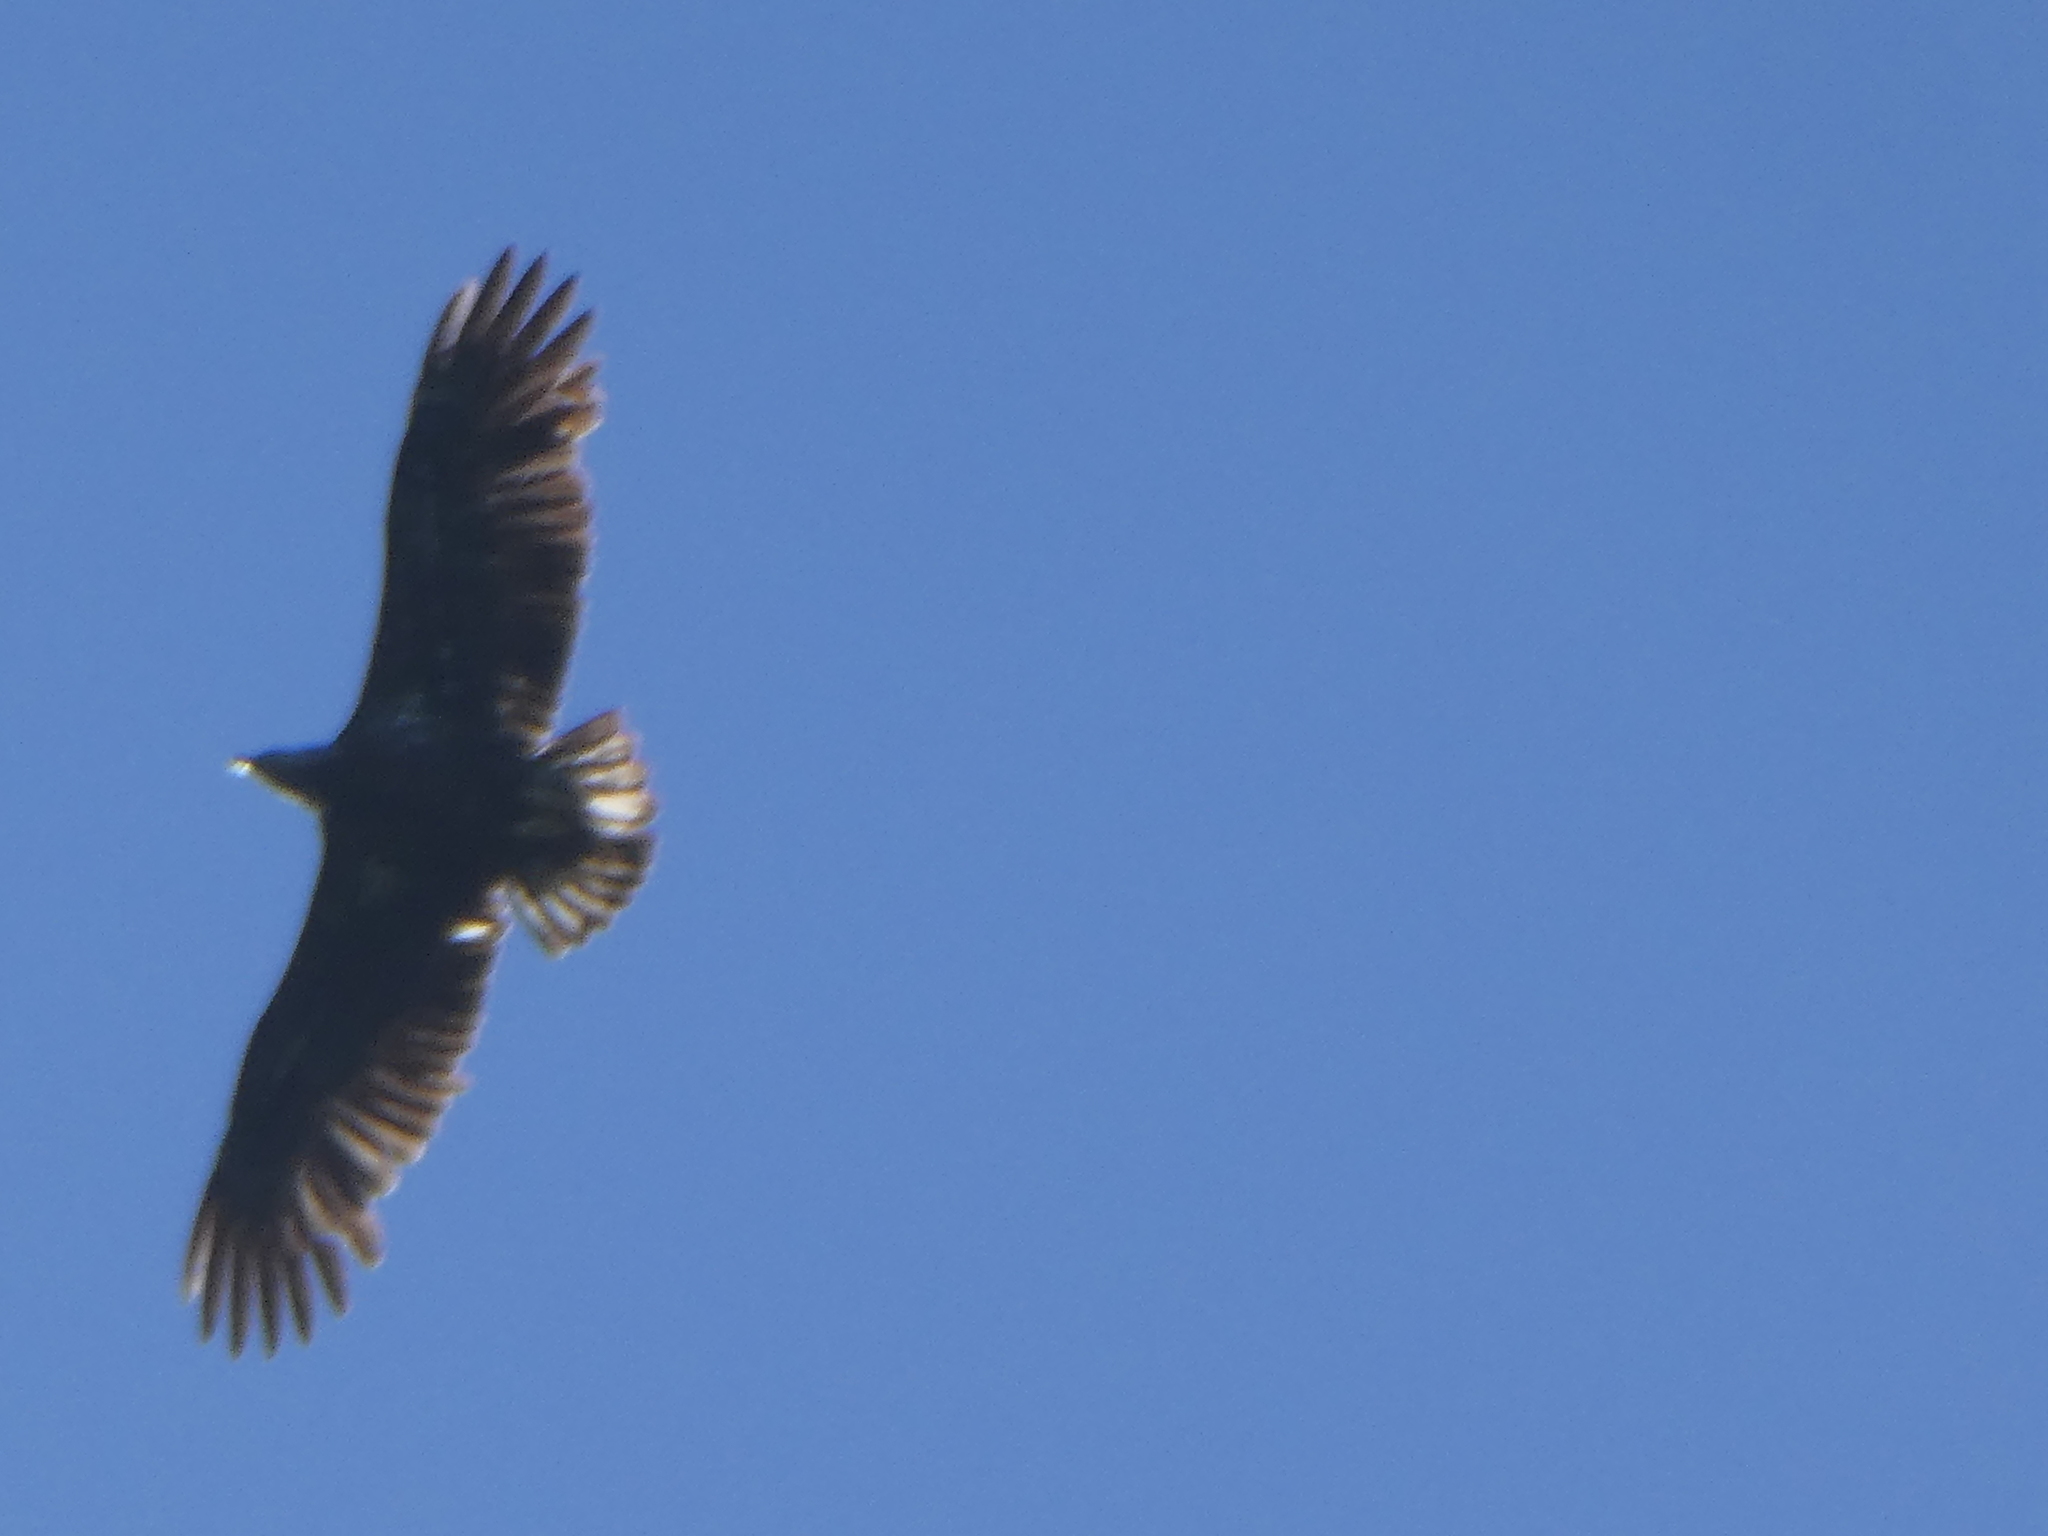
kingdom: Animalia
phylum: Chordata
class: Aves
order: Accipitriformes
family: Accipitridae
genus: Aquila
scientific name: Aquila chrysaetos
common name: Golden eagle
